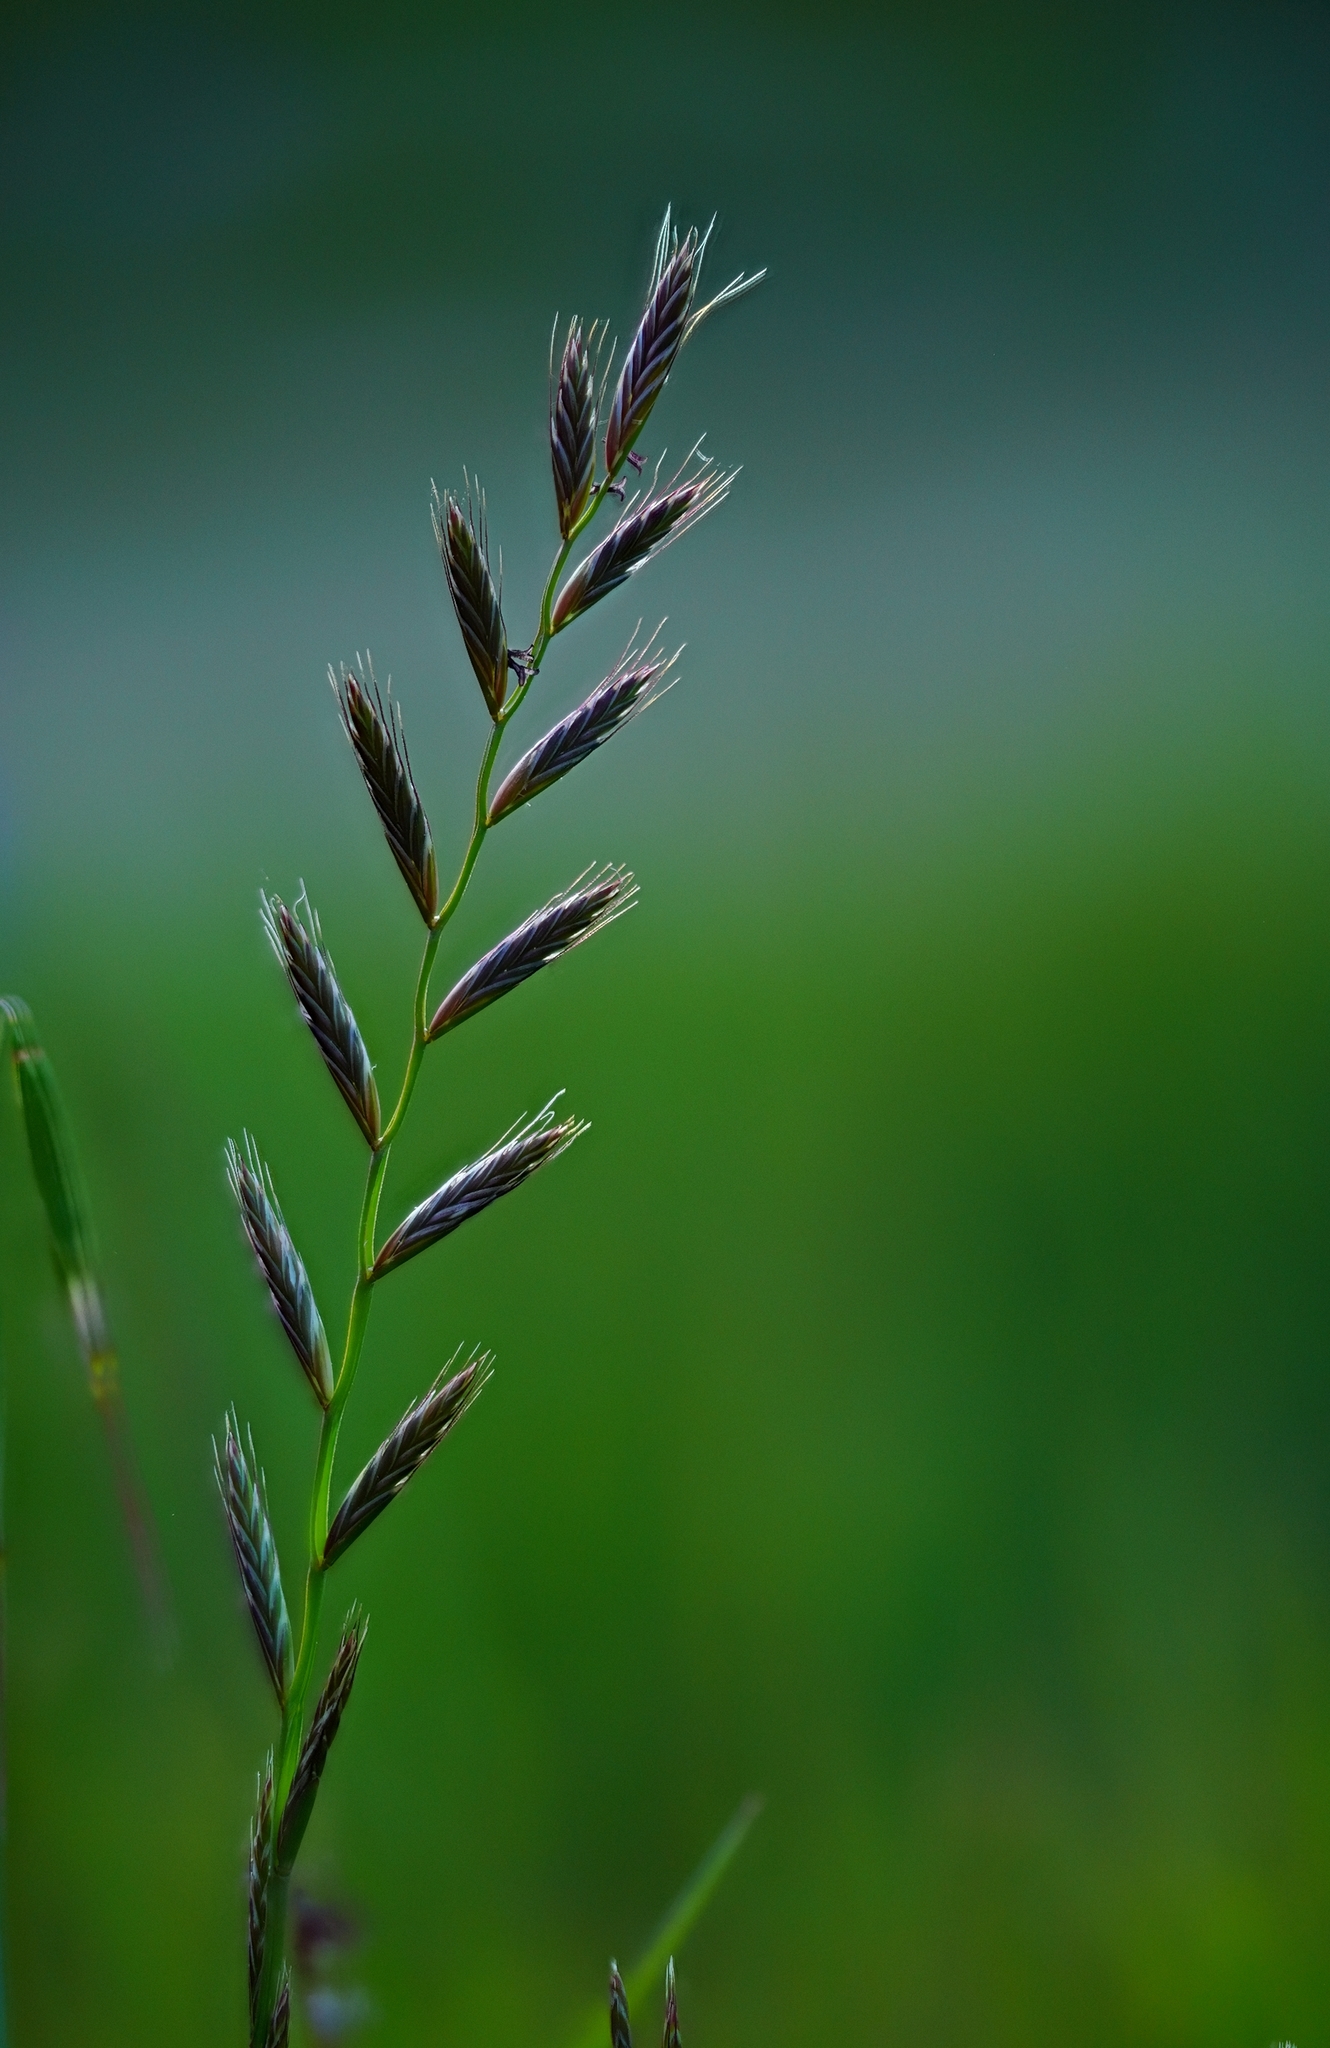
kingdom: Plantae
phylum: Tracheophyta
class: Liliopsida
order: Poales
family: Poaceae
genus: Lolium
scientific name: Lolium perenne
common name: Perennial ryegrass
